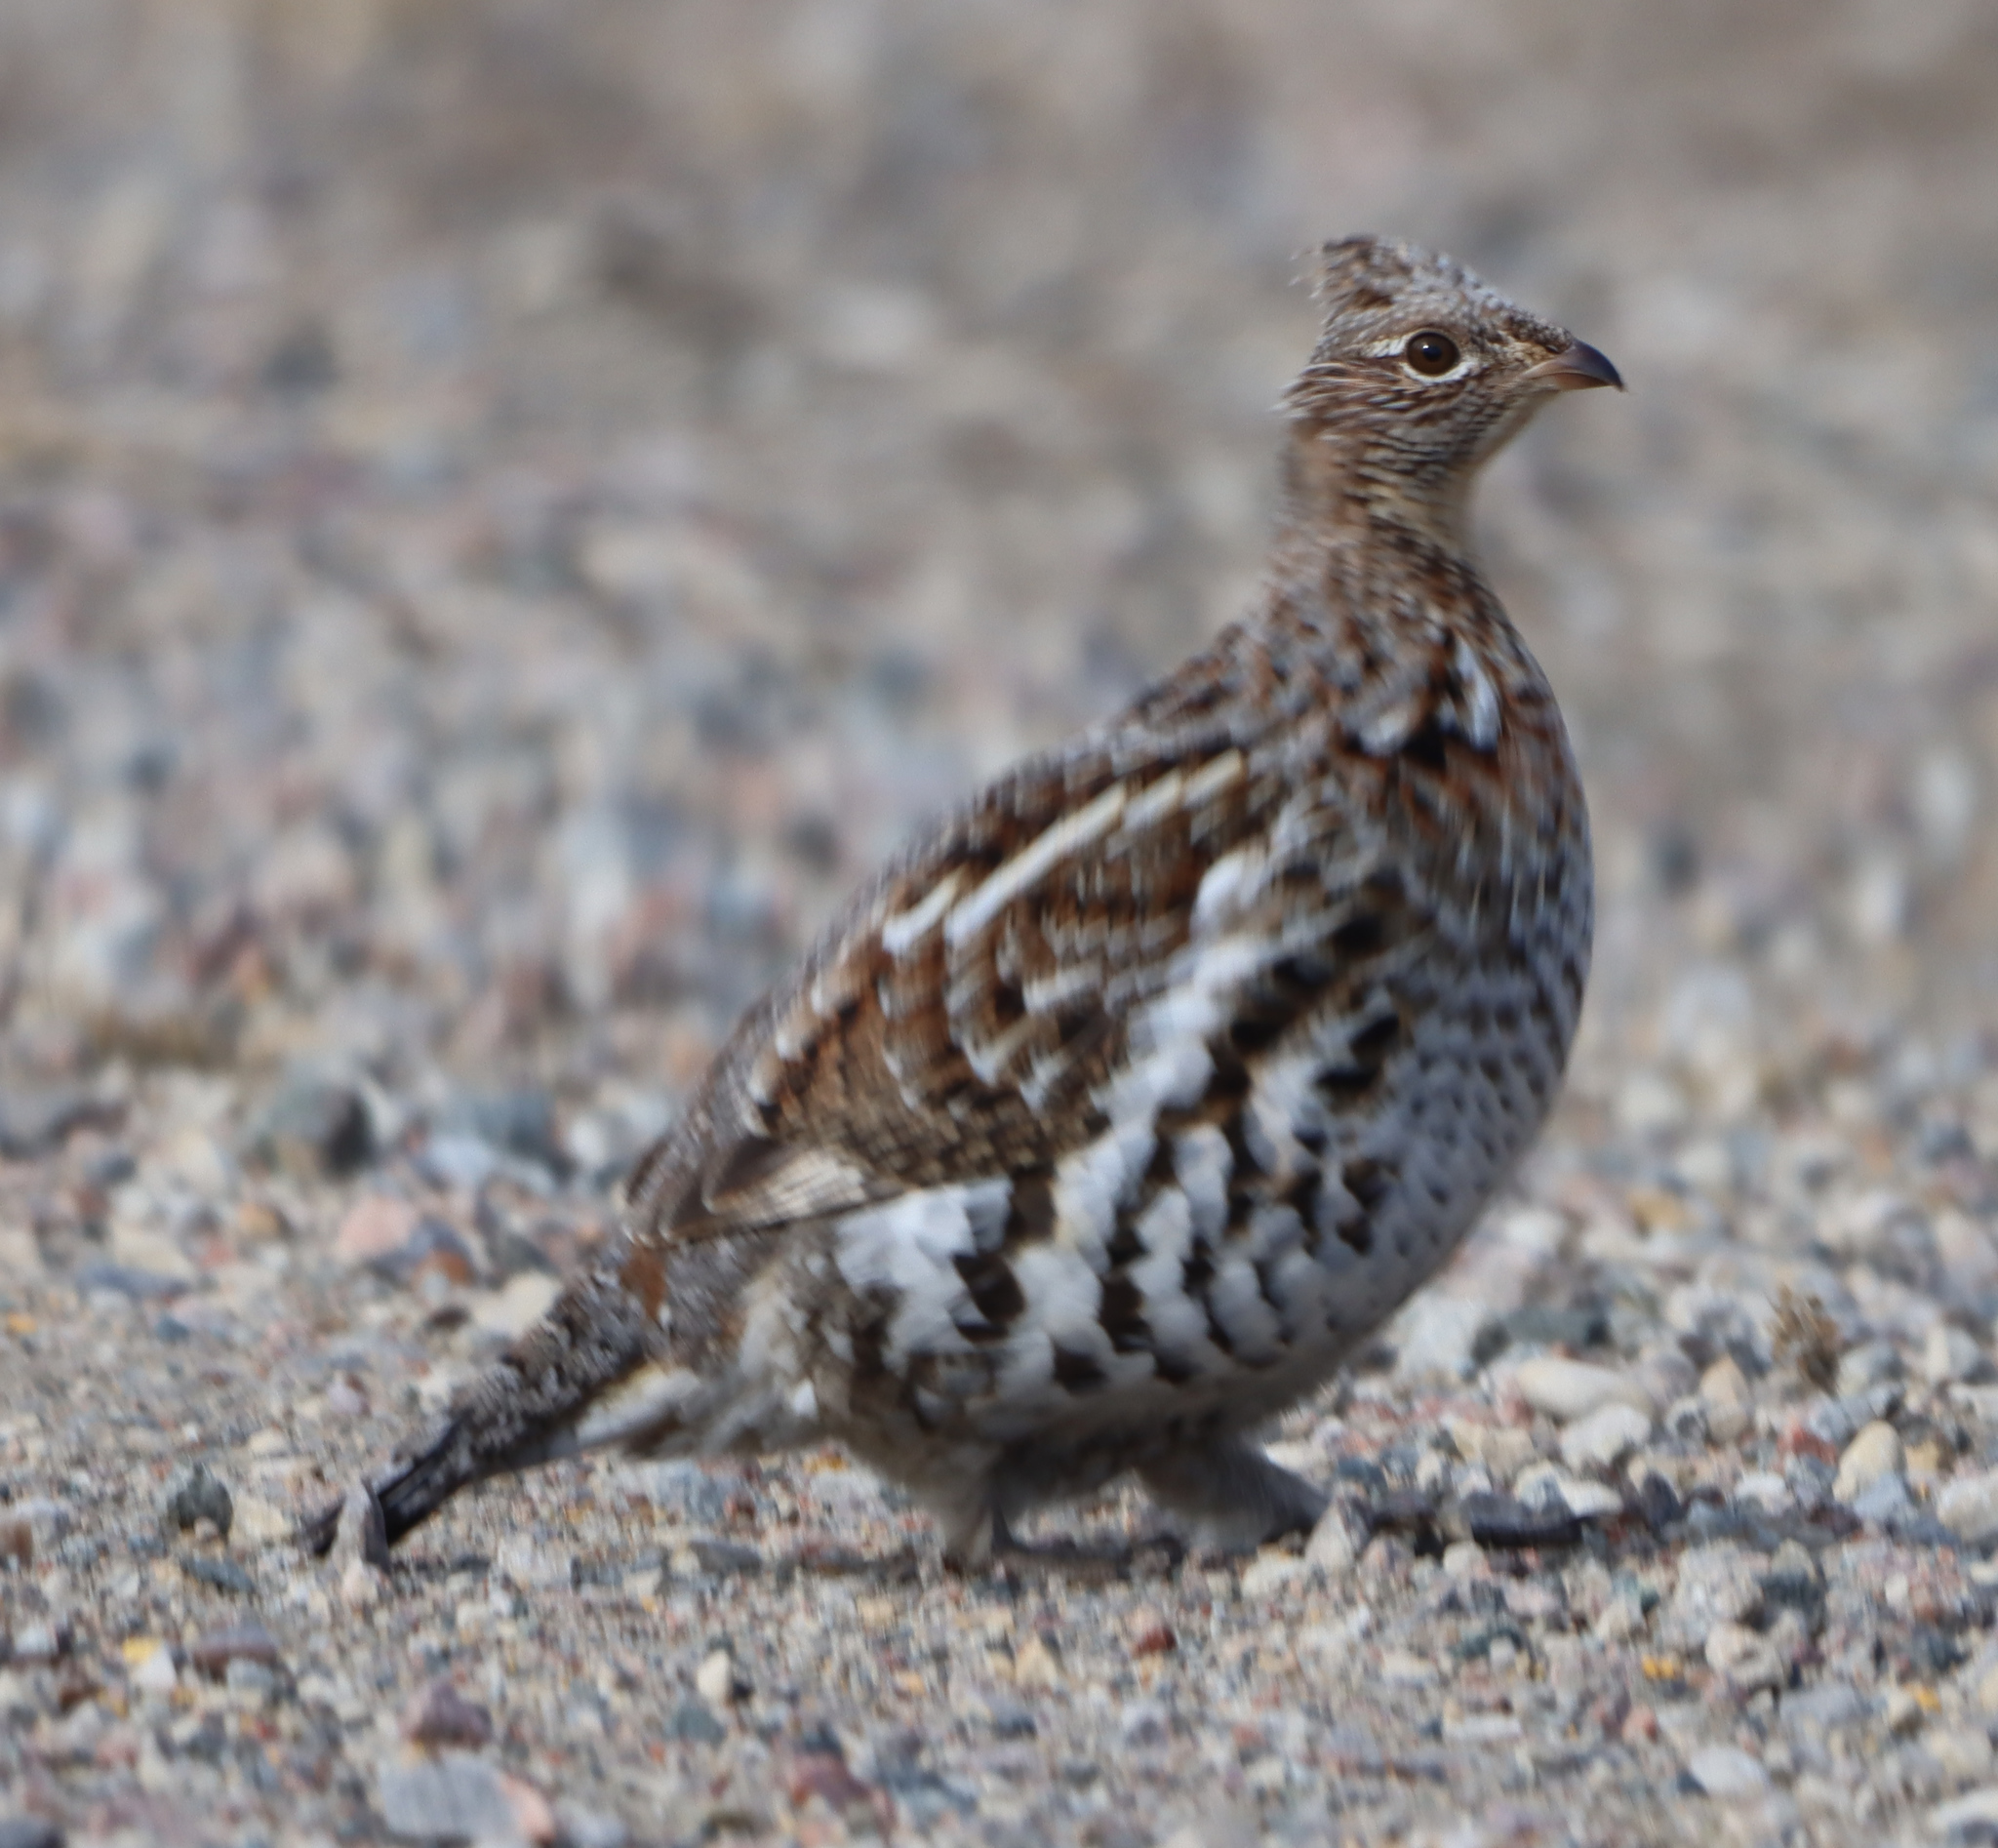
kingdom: Animalia
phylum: Chordata
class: Aves
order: Galliformes
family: Phasianidae
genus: Bonasa
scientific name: Bonasa umbellus
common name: Ruffed grouse
